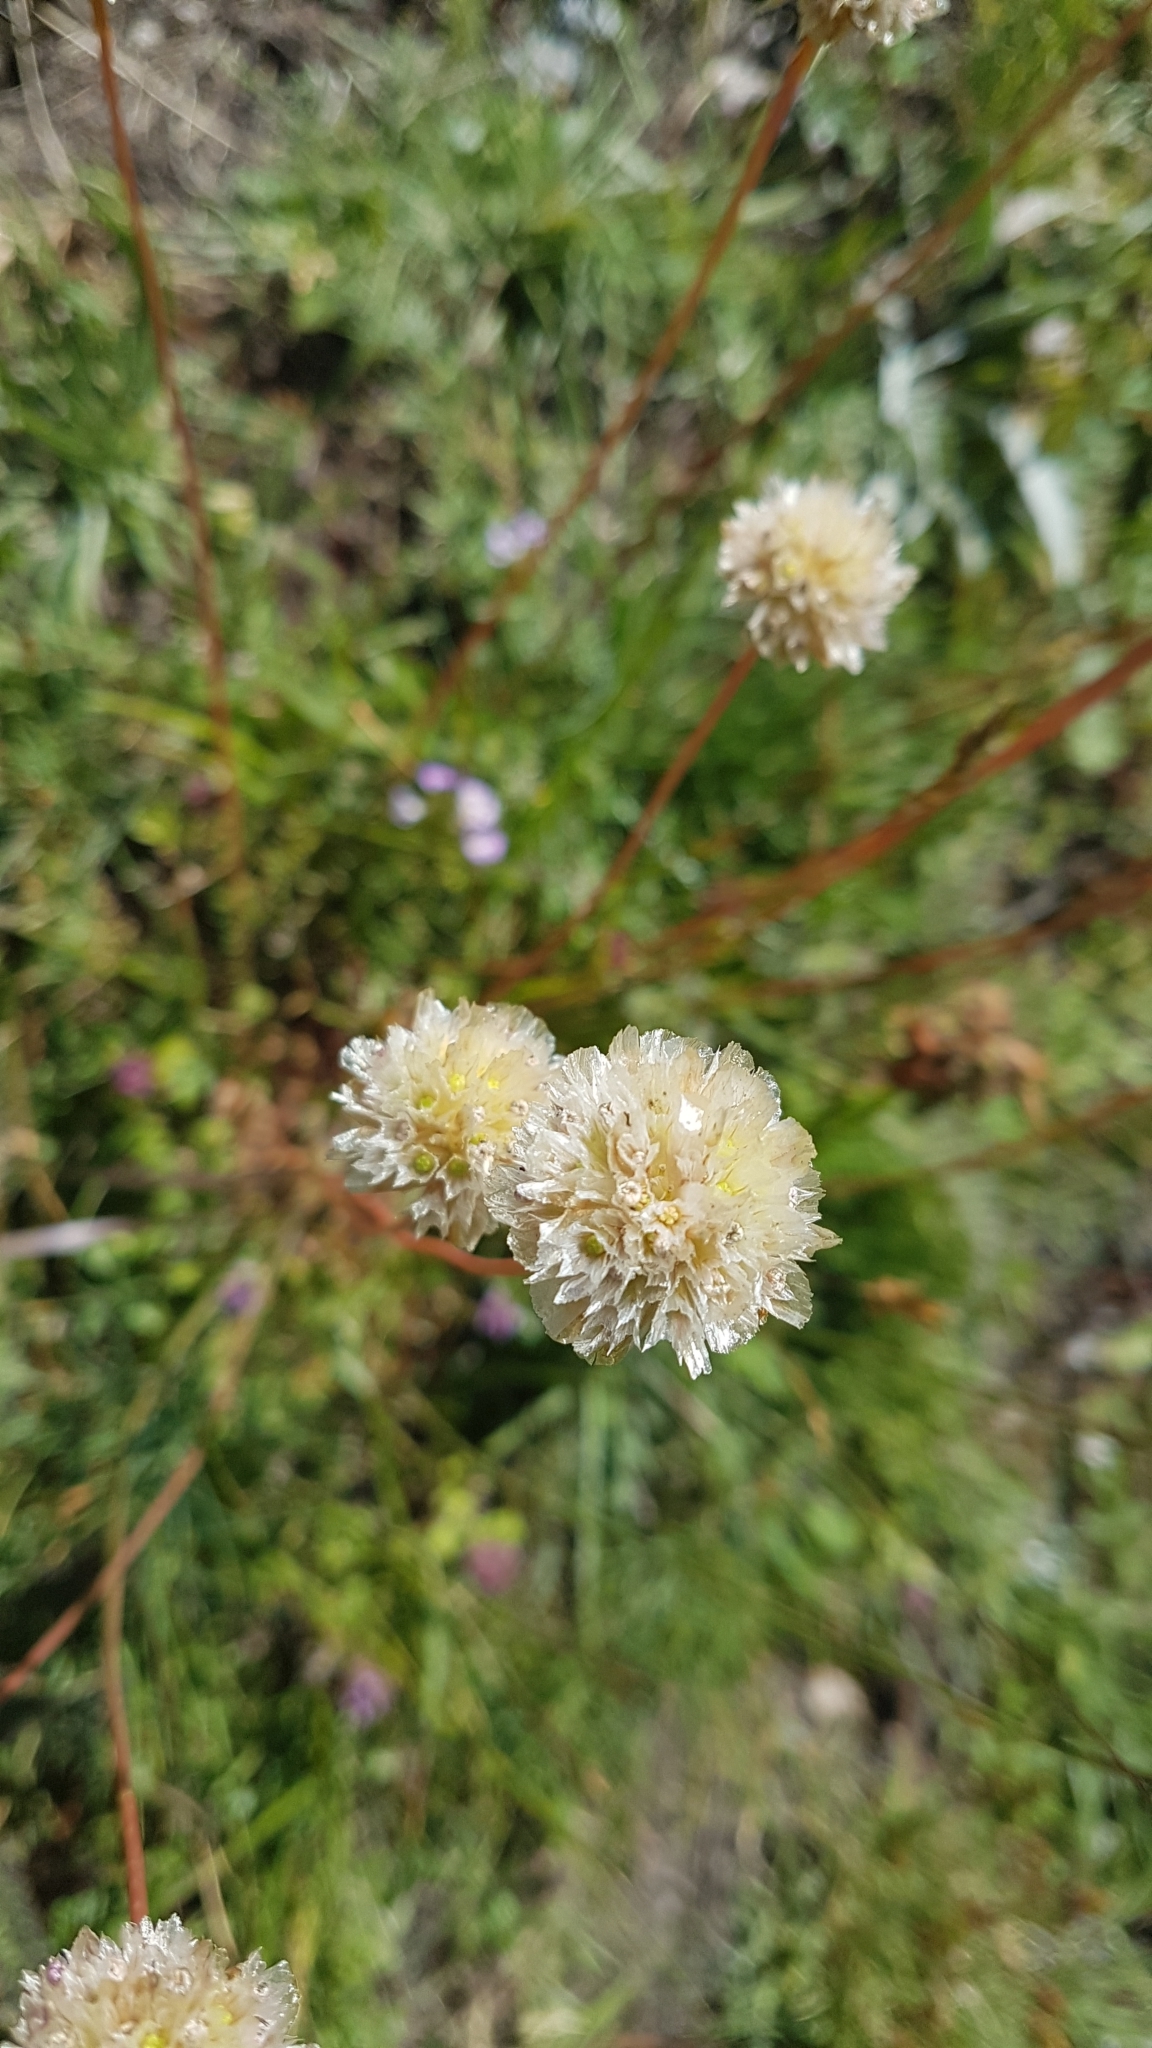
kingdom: Plantae
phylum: Tracheophyta
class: Magnoliopsida
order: Caryophyllales
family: Plumbaginaceae
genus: Armeria
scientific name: Armeria alpina
